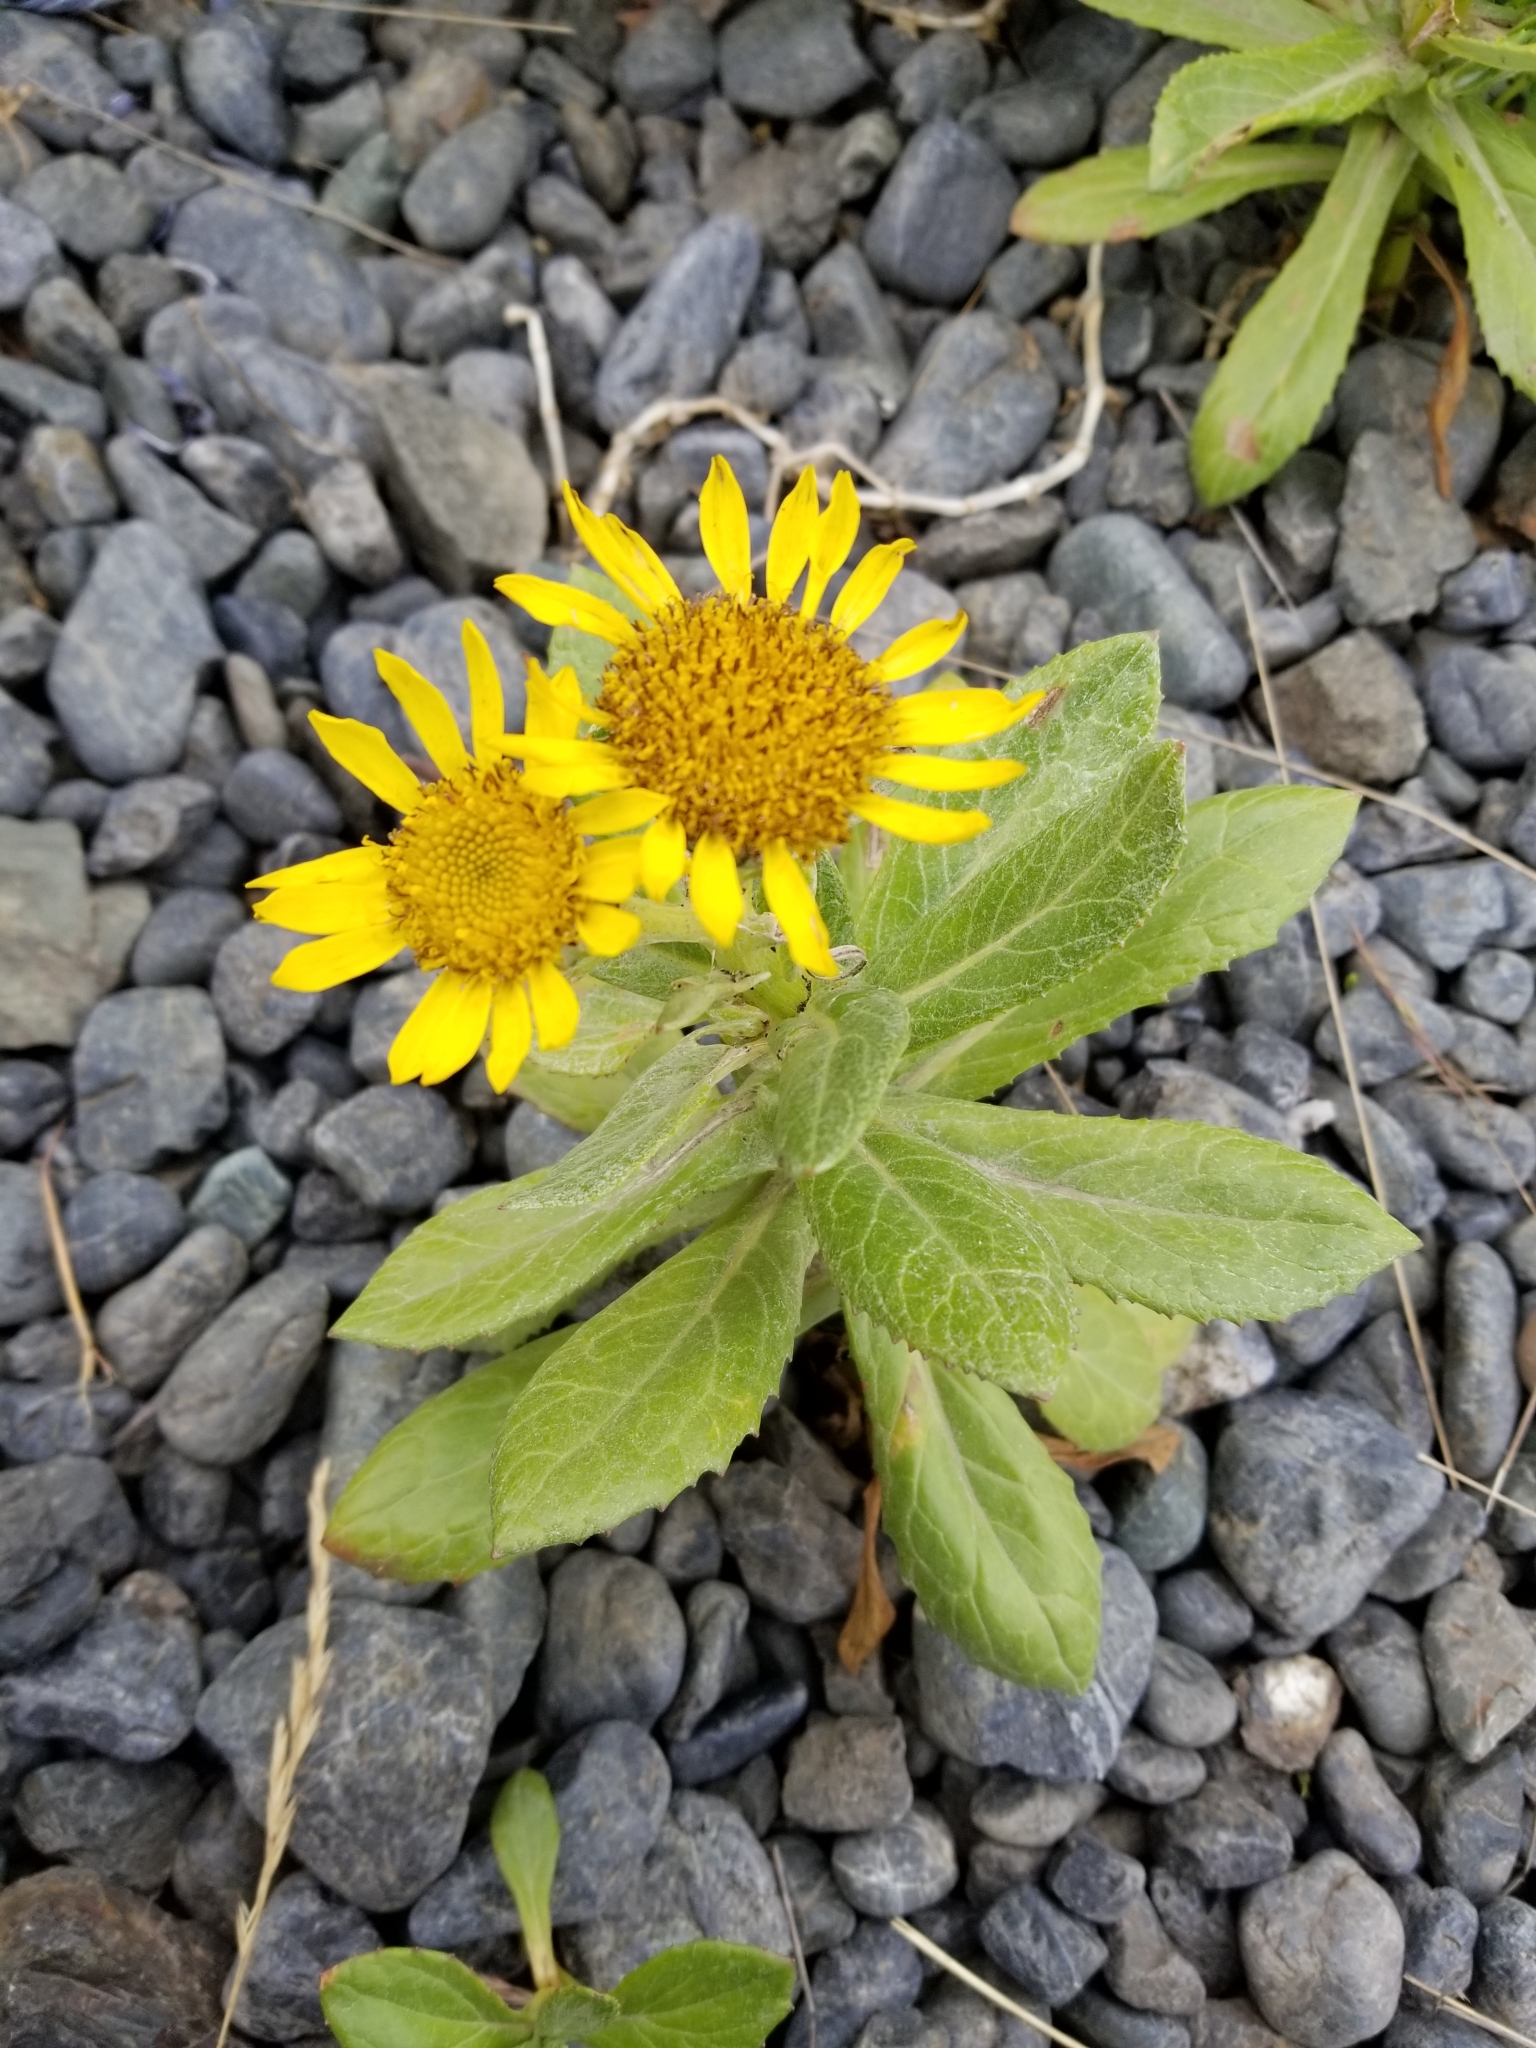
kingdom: Plantae
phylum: Tracheophyta
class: Magnoliopsida
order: Asterales
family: Asteraceae
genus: Jacobaea
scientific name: Jacobaea pseudoarnica
